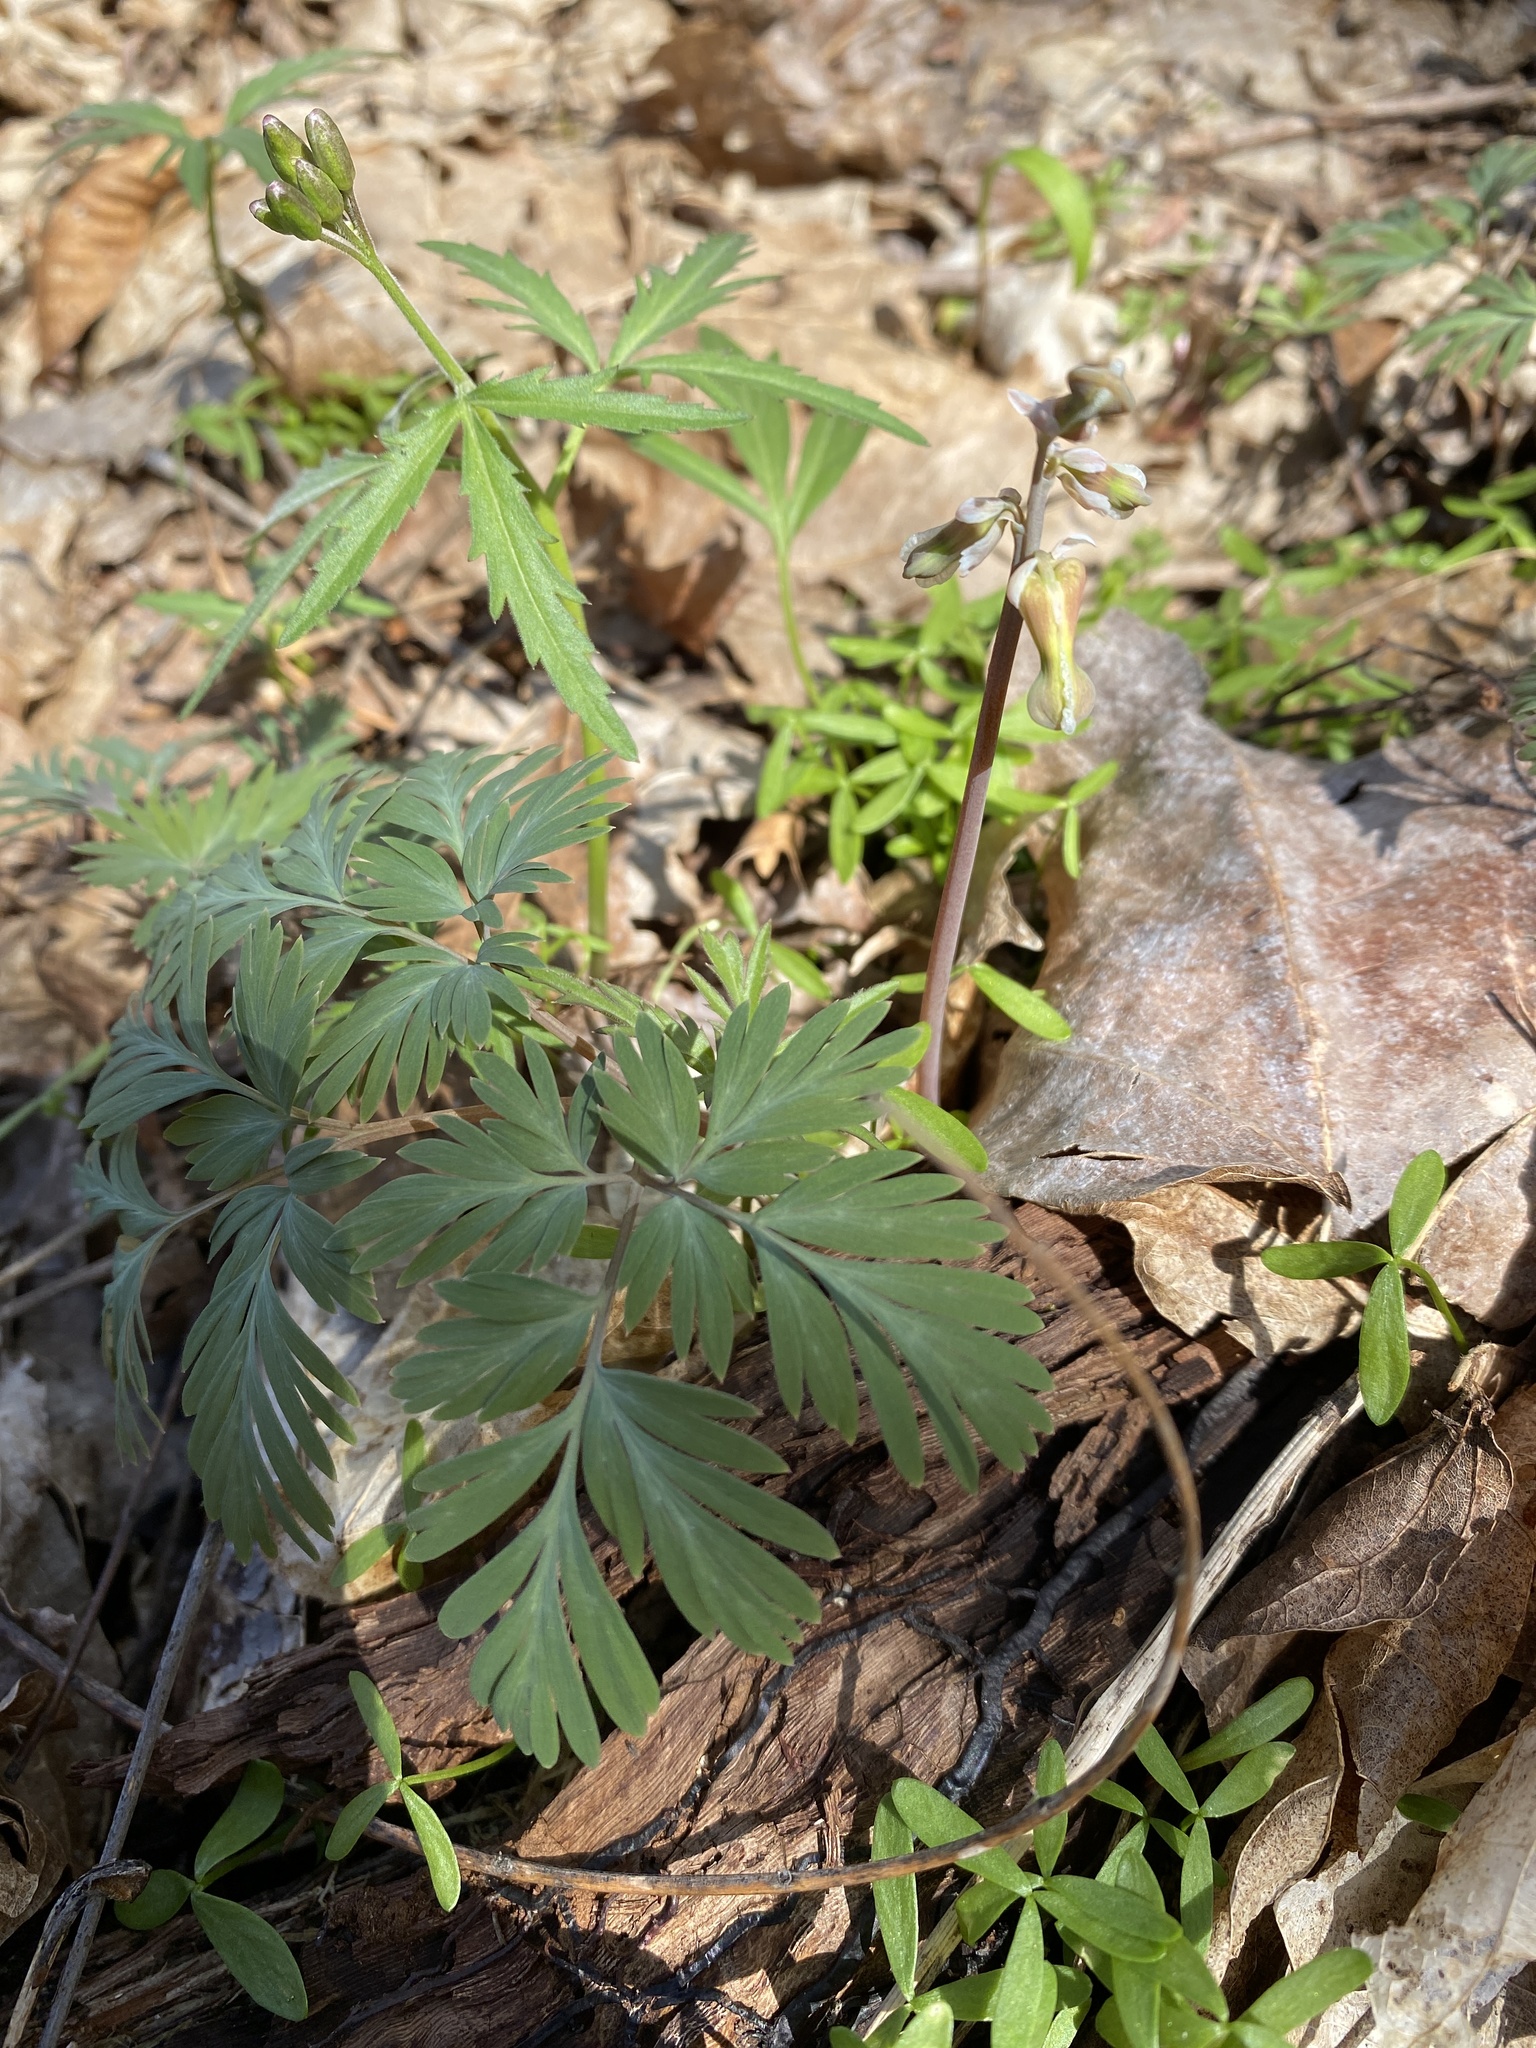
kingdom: Plantae
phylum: Tracheophyta
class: Magnoliopsida
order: Ranunculales
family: Papaveraceae
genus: Dicentra
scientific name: Dicentra canadensis
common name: Squirrel-corn
